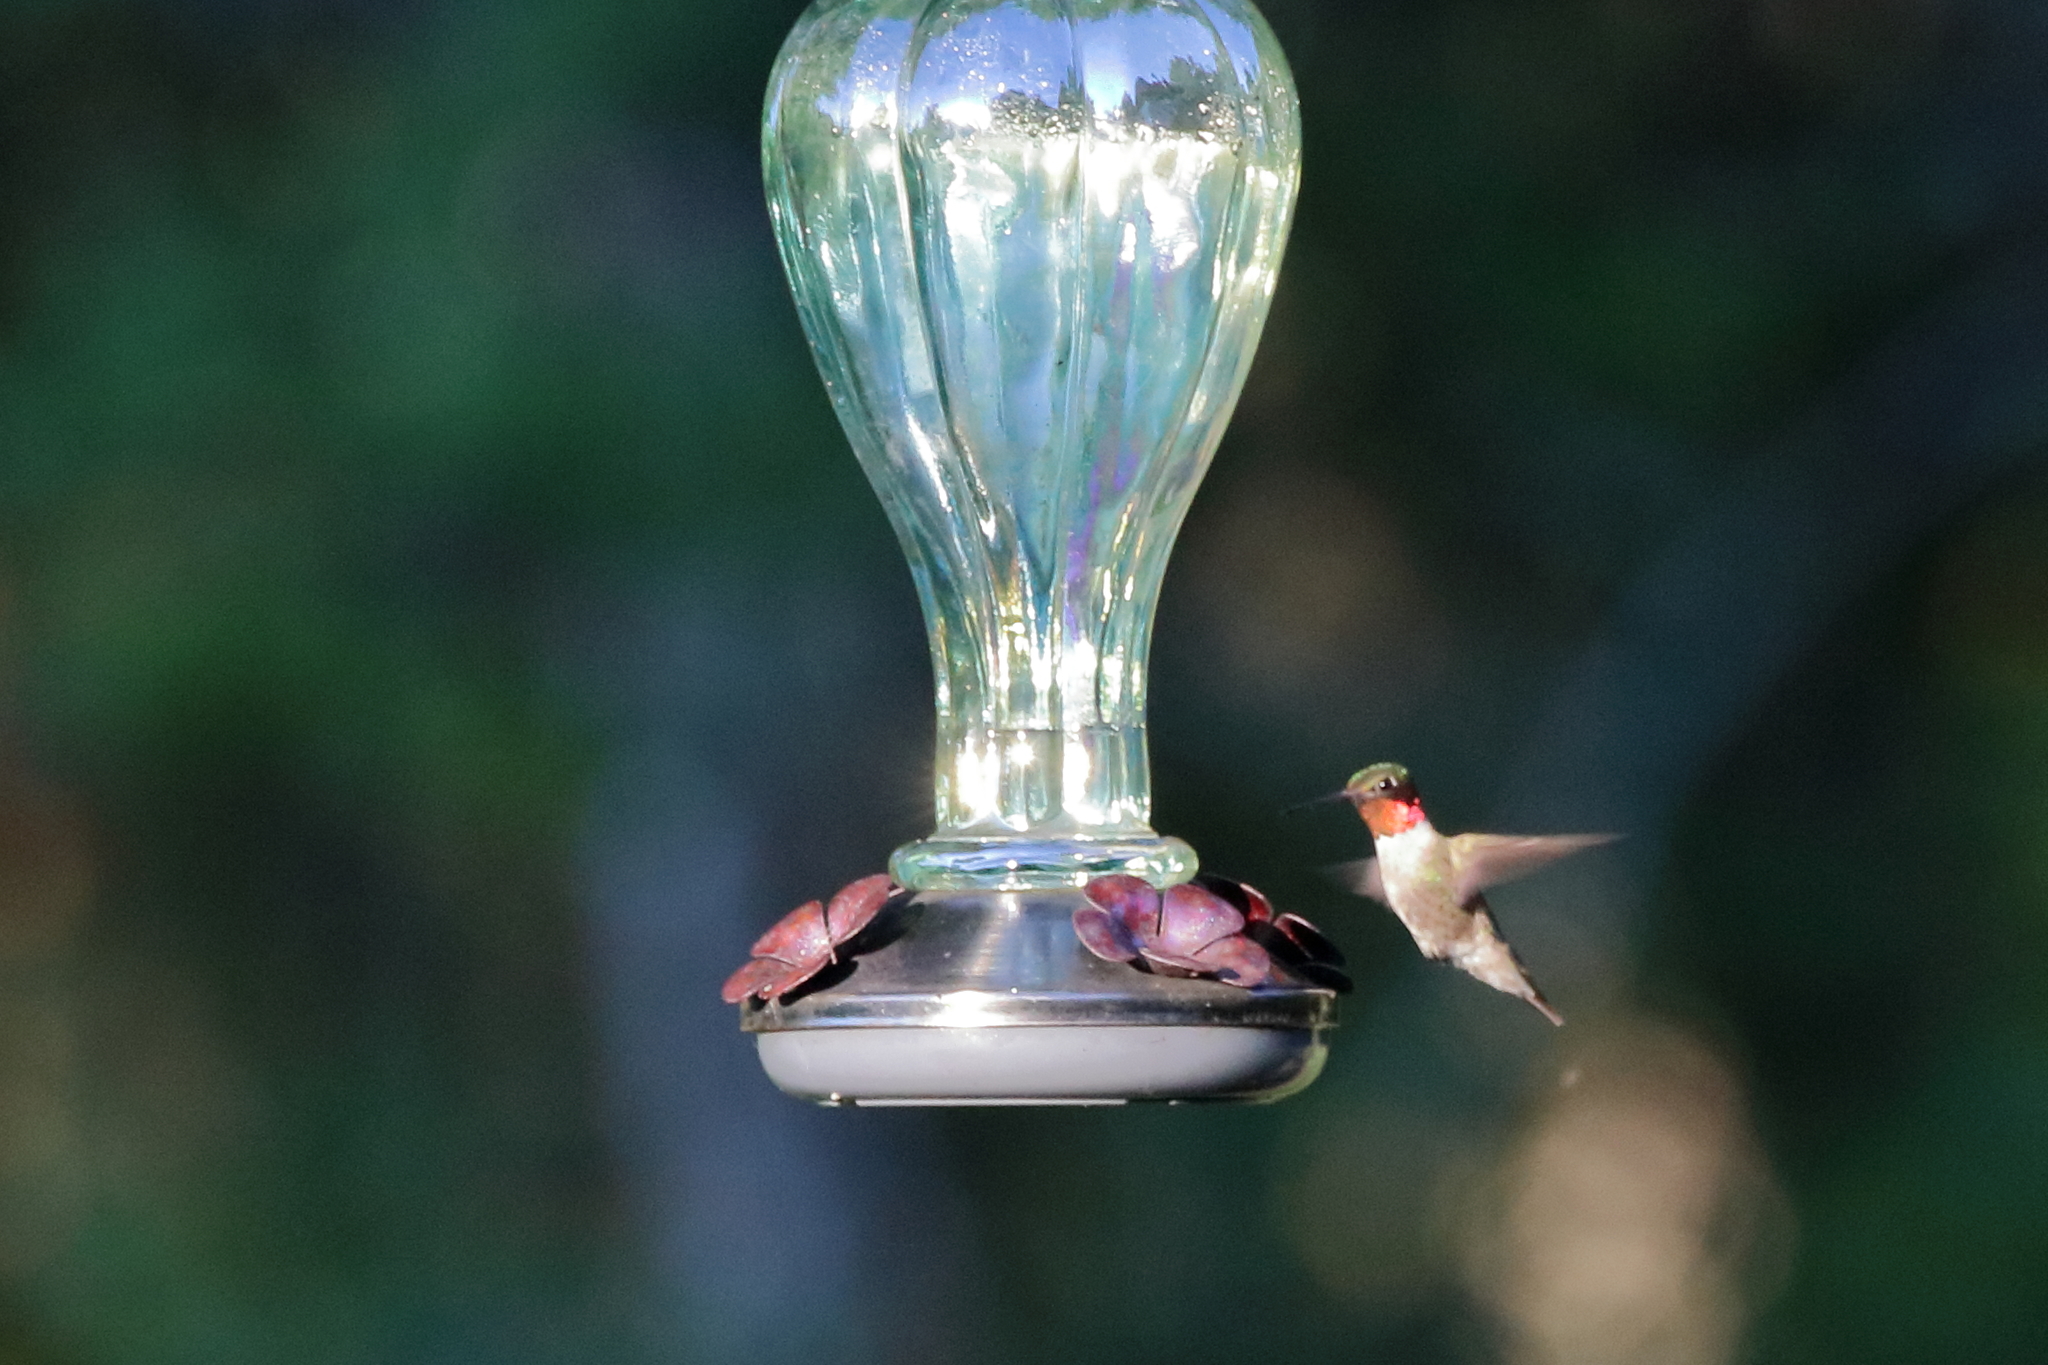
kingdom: Animalia
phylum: Chordata
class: Aves
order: Apodiformes
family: Trochilidae
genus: Archilochus
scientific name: Archilochus colubris
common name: Ruby-throated hummingbird
